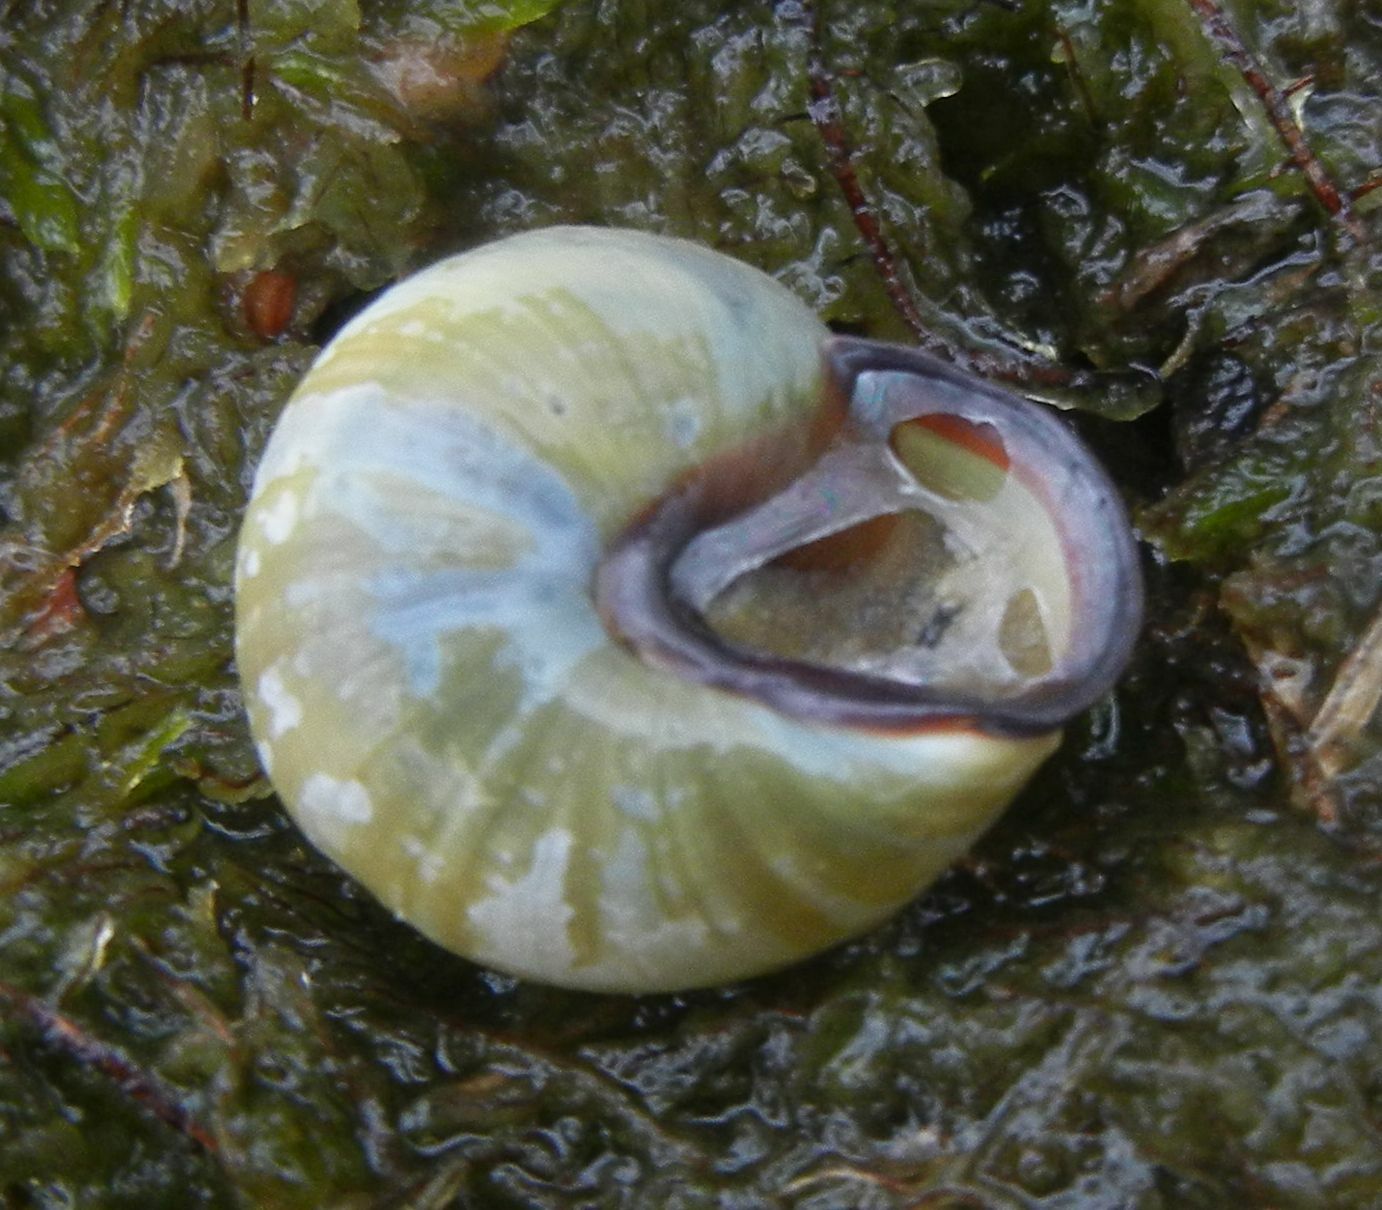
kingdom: Animalia
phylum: Mollusca
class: Gastropoda
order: Stylommatophora
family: Helicidae
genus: Cepaea
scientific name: Cepaea nemoralis
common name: Grovesnail
